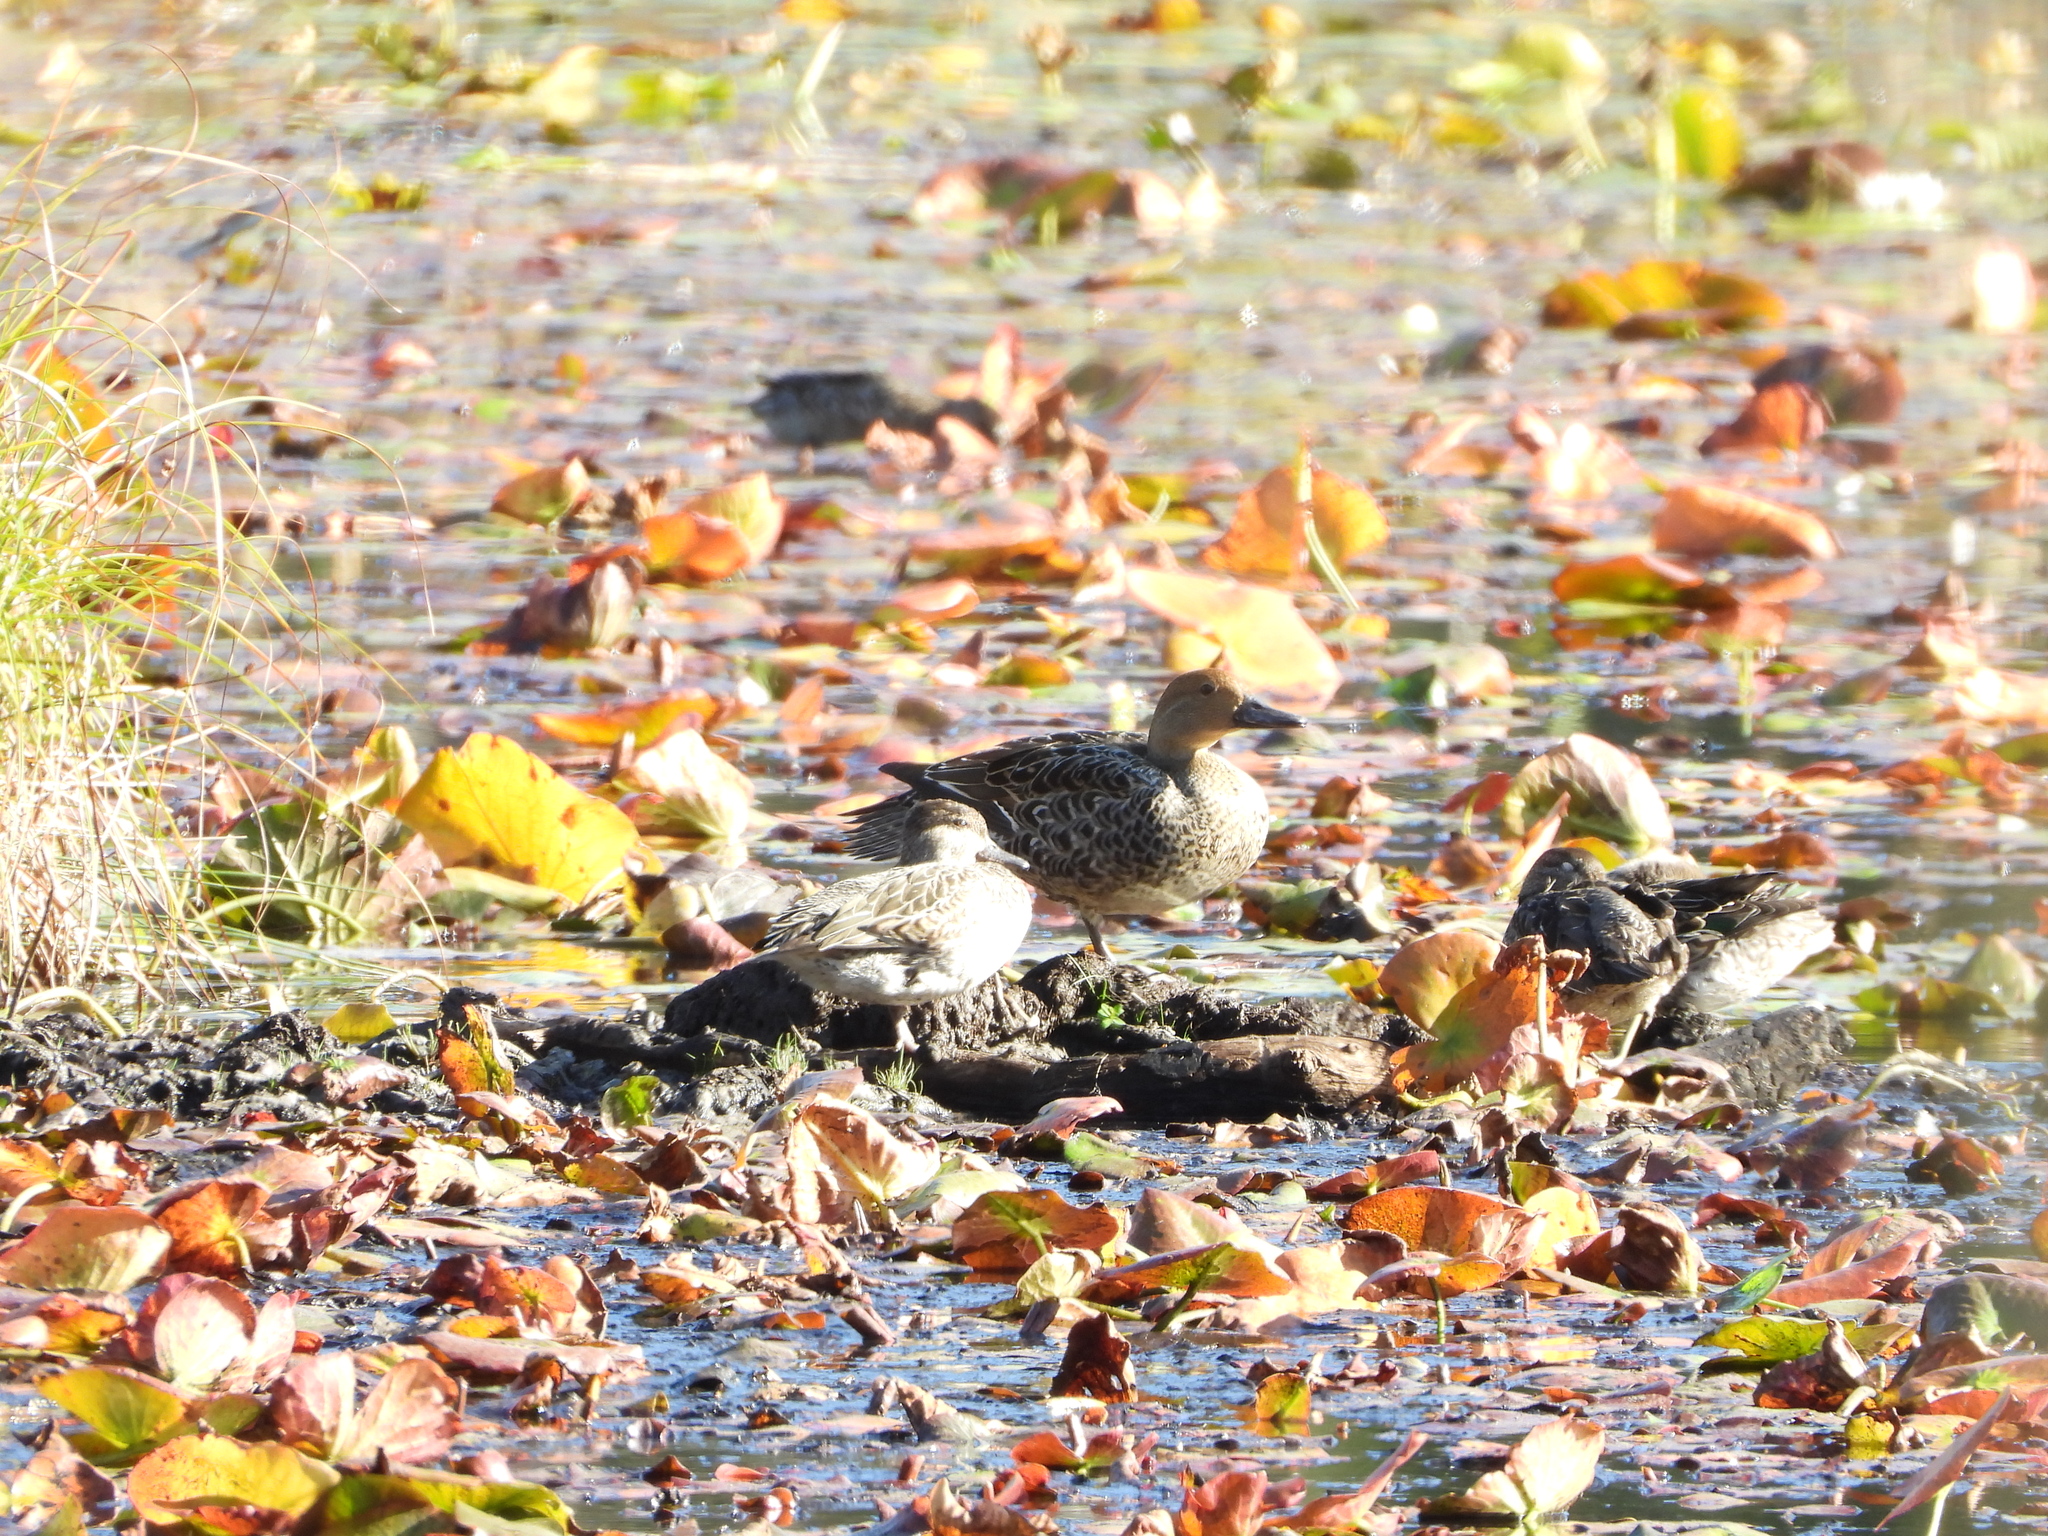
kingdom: Animalia
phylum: Chordata
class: Aves
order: Anseriformes
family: Anatidae
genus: Anas
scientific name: Anas acuta
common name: Northern pintail
